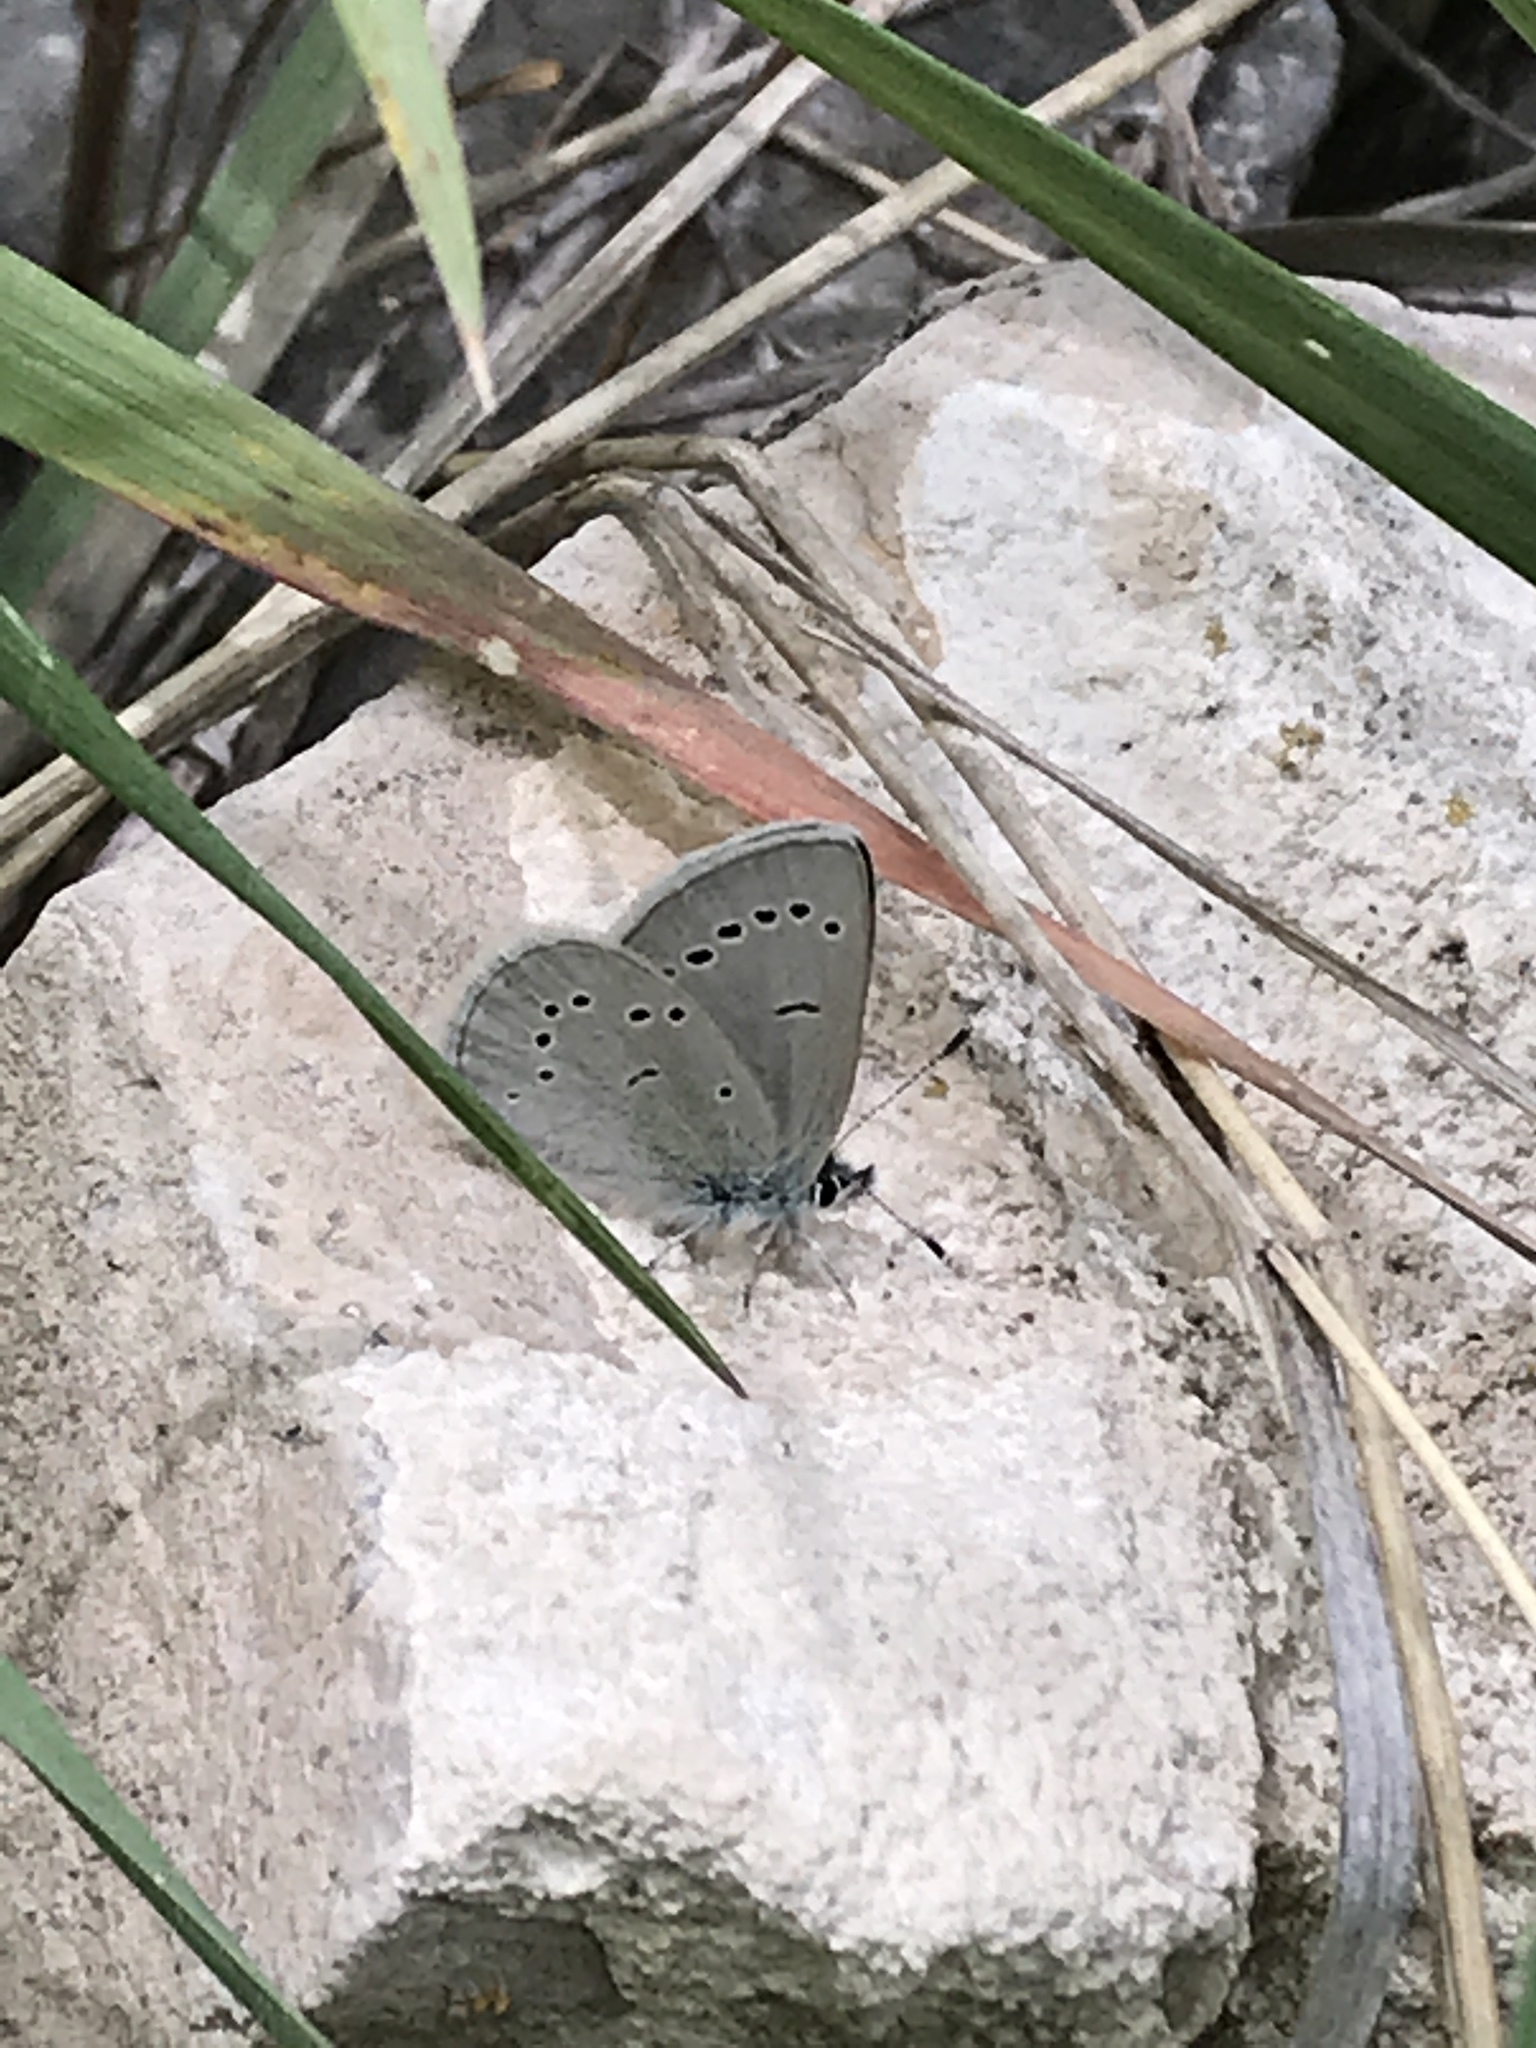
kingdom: Animalia
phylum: Arthropoda
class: Insecta
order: Lepidoptera
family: Lycaenidae
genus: Glaucopsyche
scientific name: Glaucopsyche lygdamus
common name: Silvery blue
